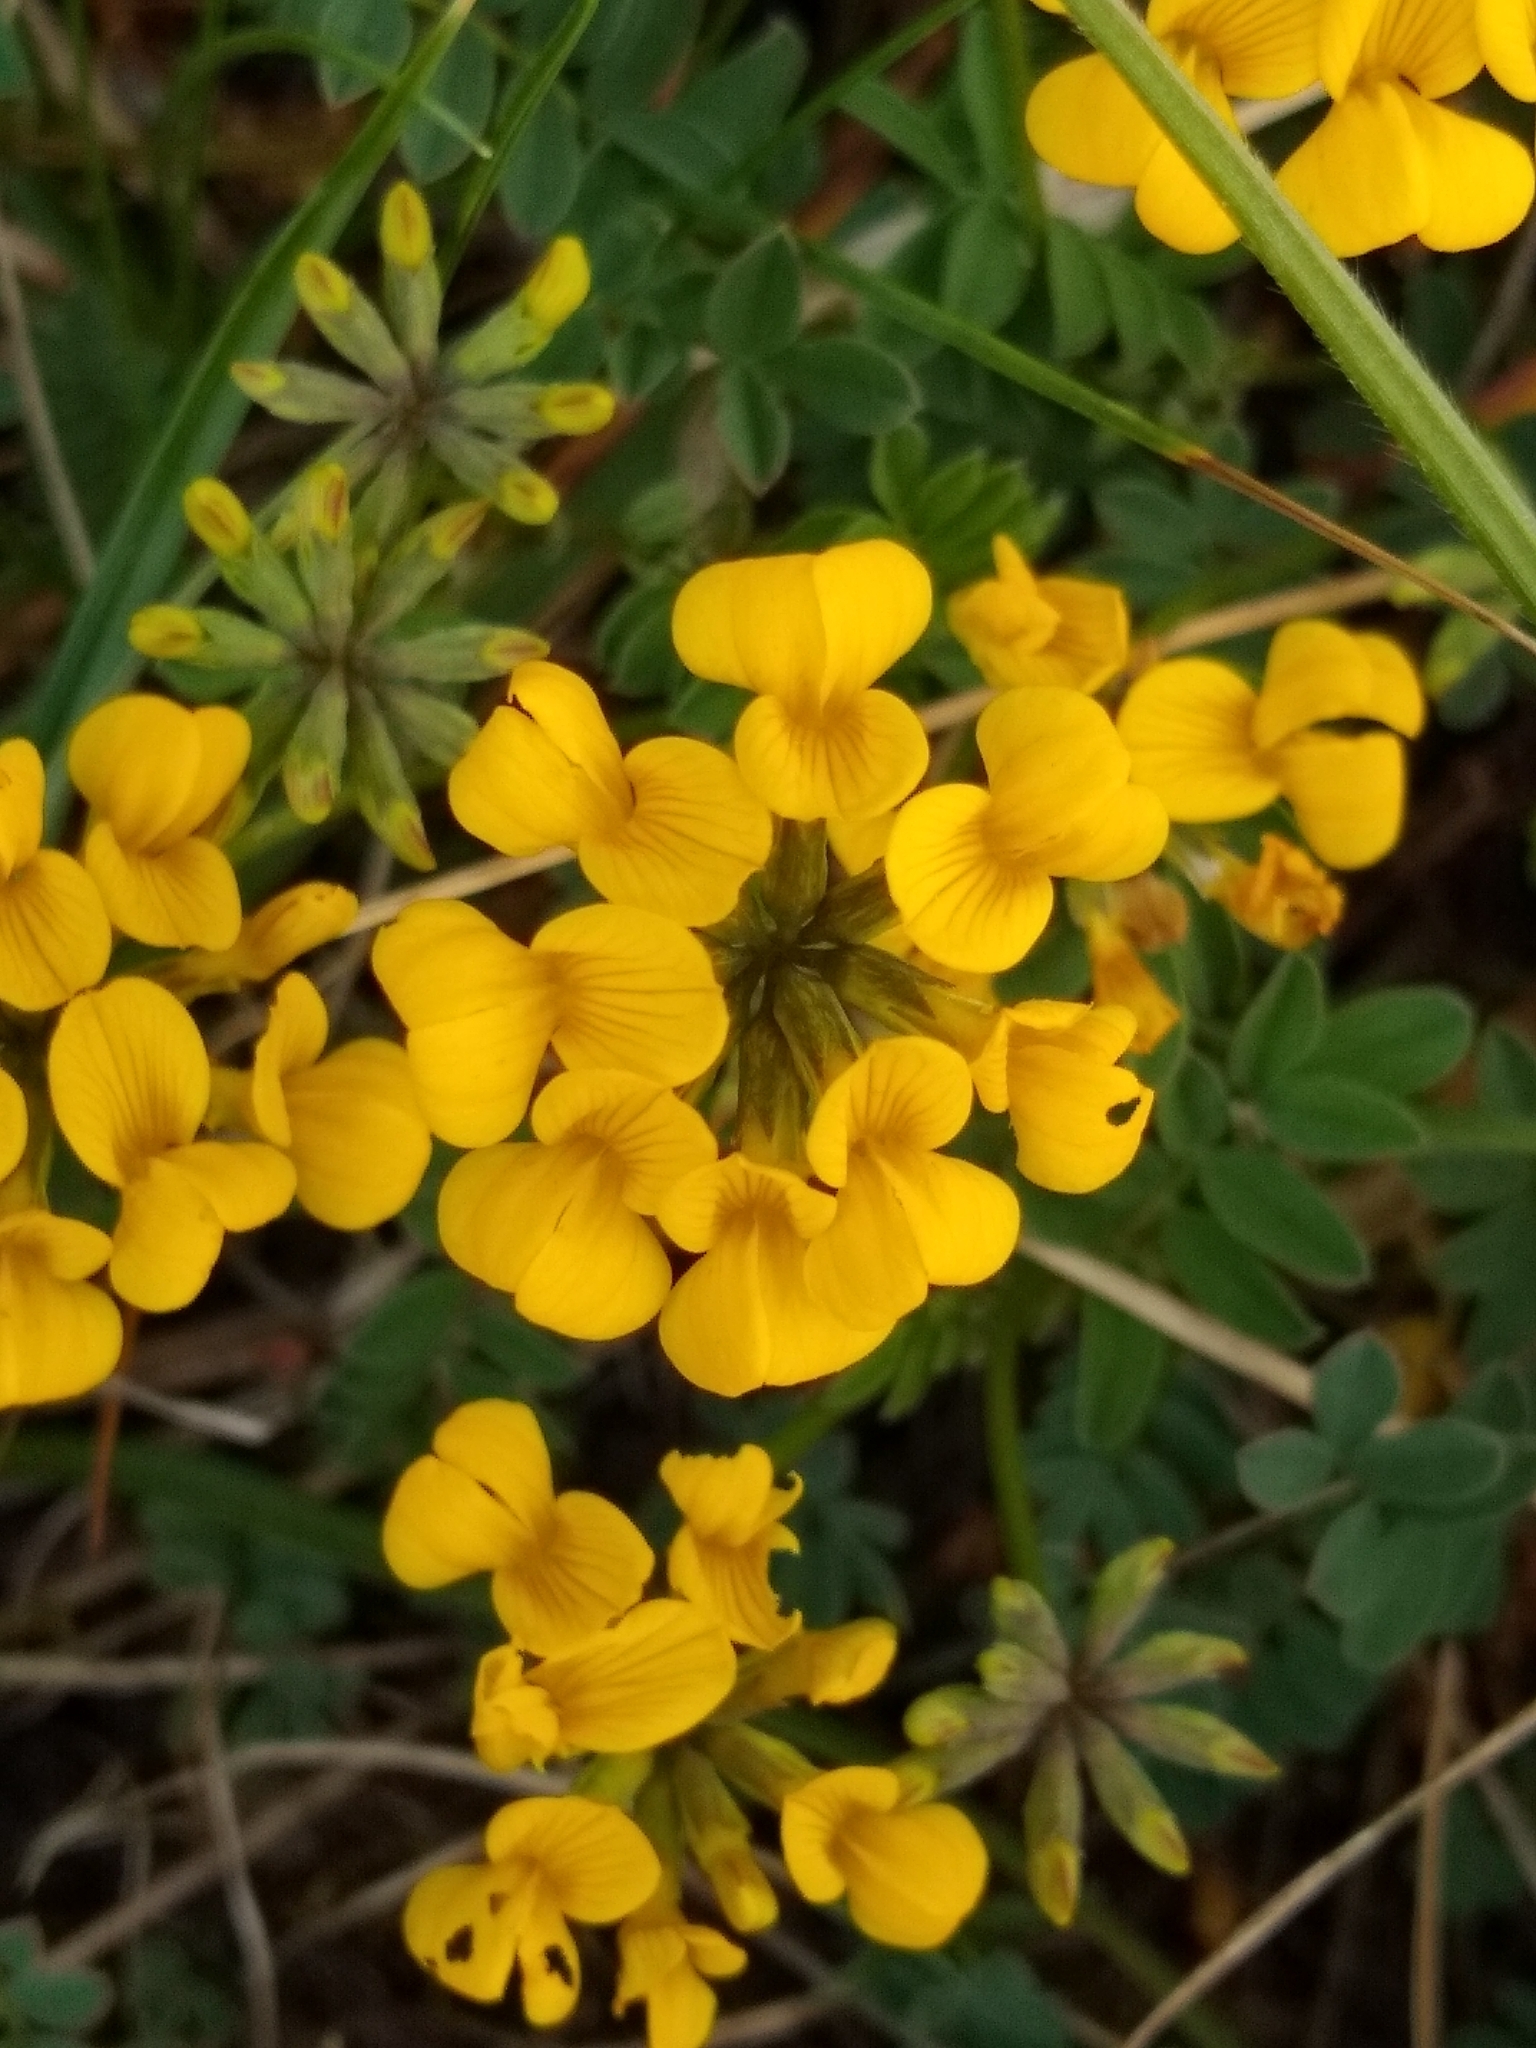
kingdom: Plantae
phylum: Tracheophyta
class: Magnoliopsida
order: Fabales
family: Fabaceae
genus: Hippocrepis
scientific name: Hippocrepis comosa
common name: Horseshoe vetch
